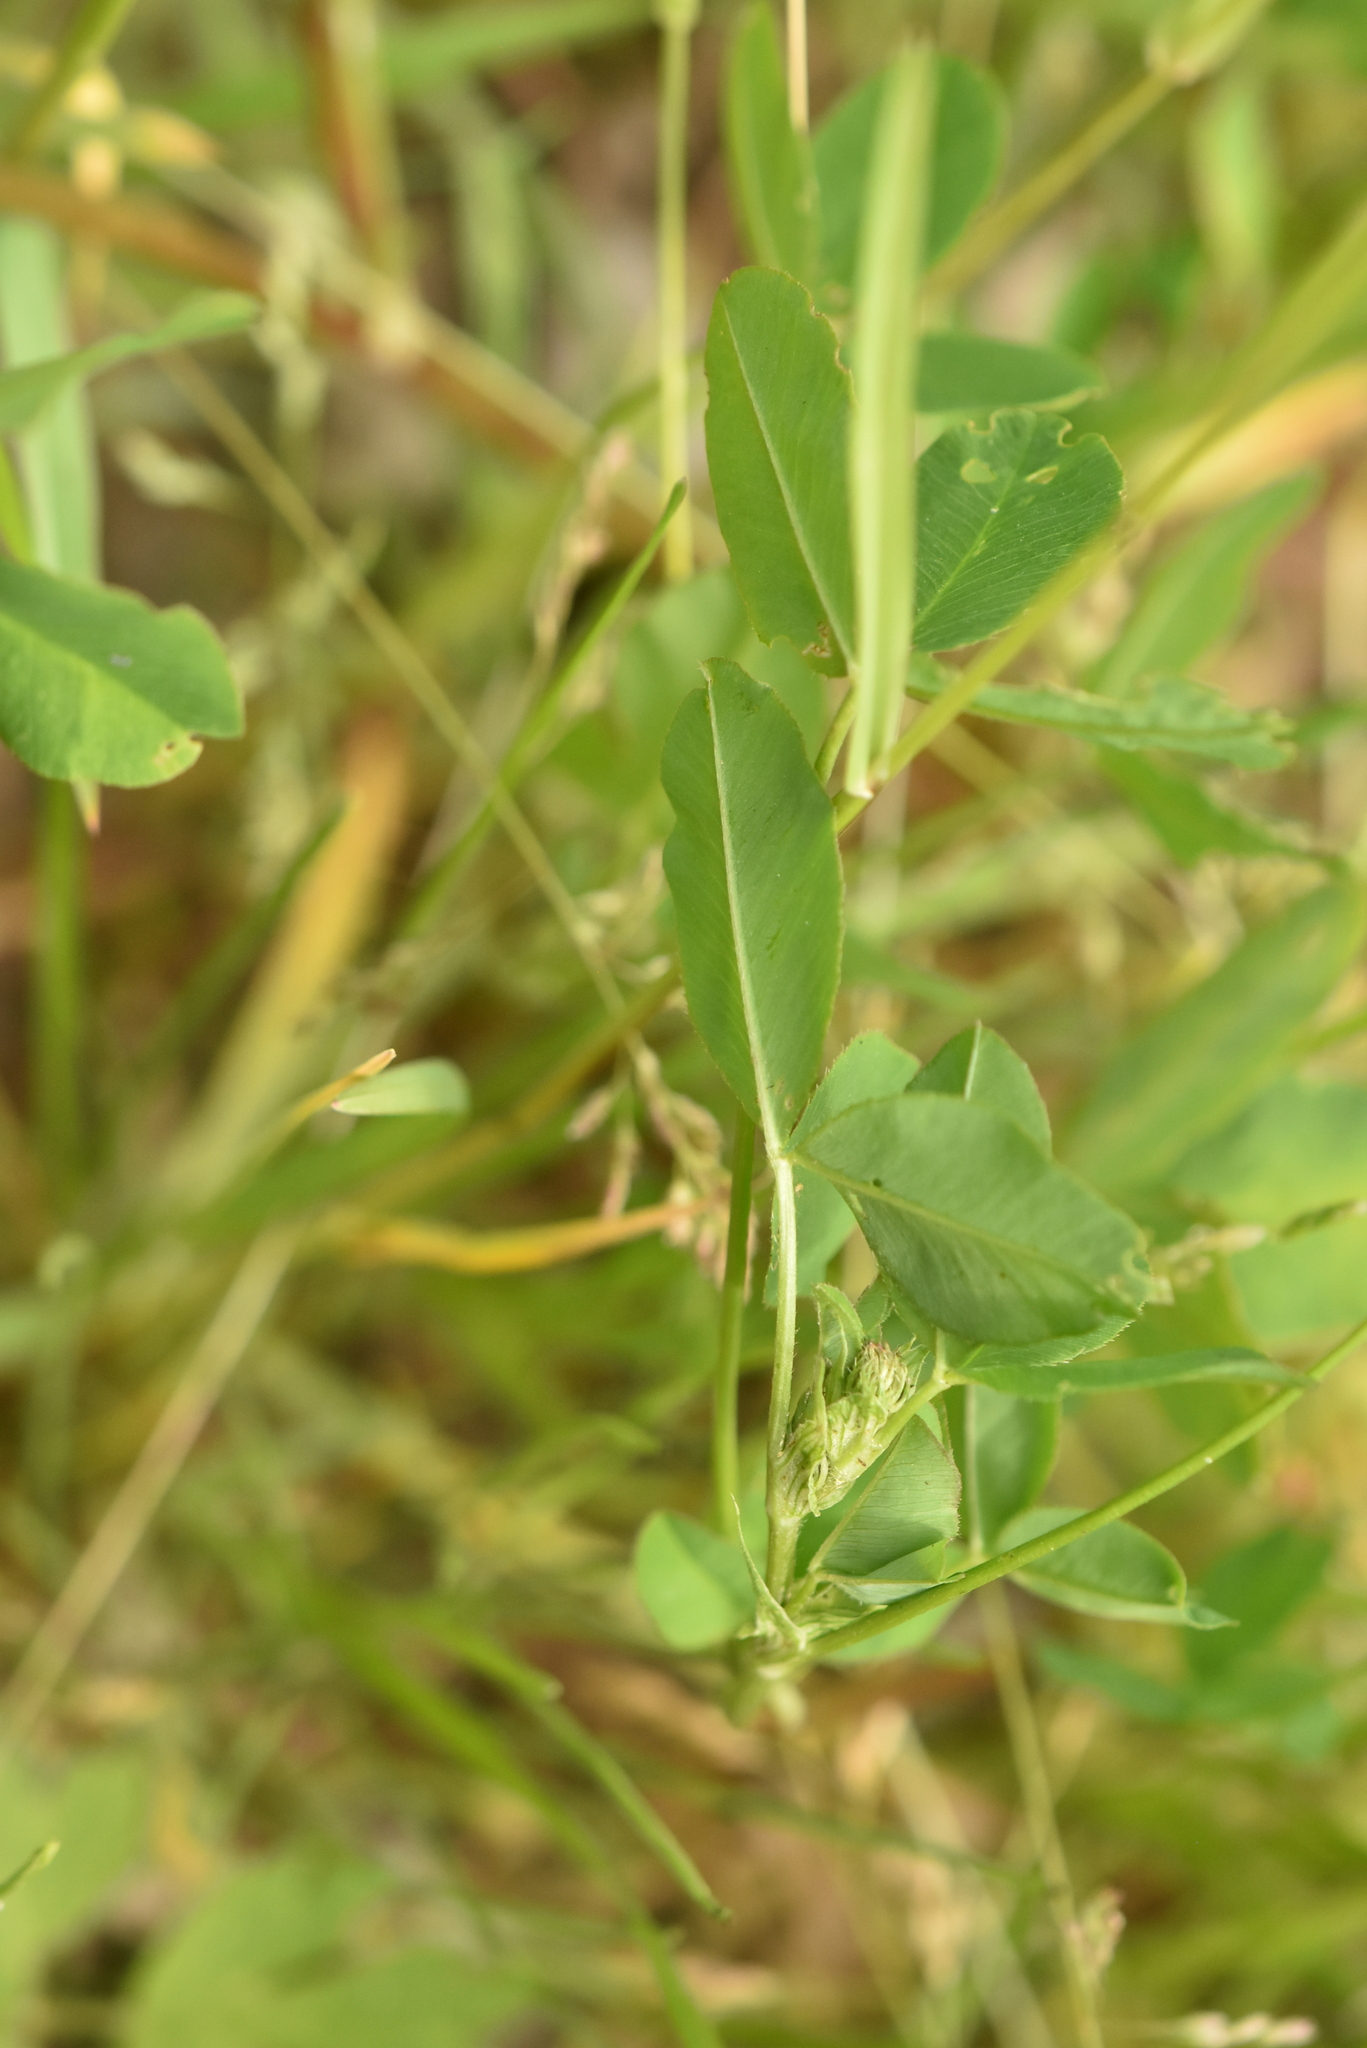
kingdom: Plantae
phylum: Tracheophyta
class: Magnoliopsida
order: Fabales
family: Fabaceae
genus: Trifolium
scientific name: Trifolium hybridum
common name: Alsike clover
